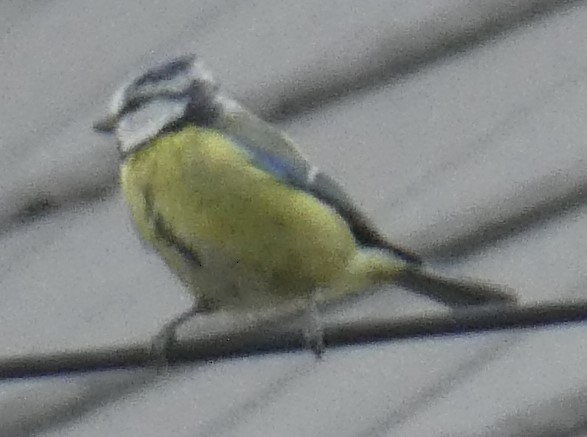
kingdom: Animalia
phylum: Chordata
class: Aves
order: Passeriformes
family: Paridae
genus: Cyanistes
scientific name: Cyanistes caeruleus
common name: Eurasian blue tit
